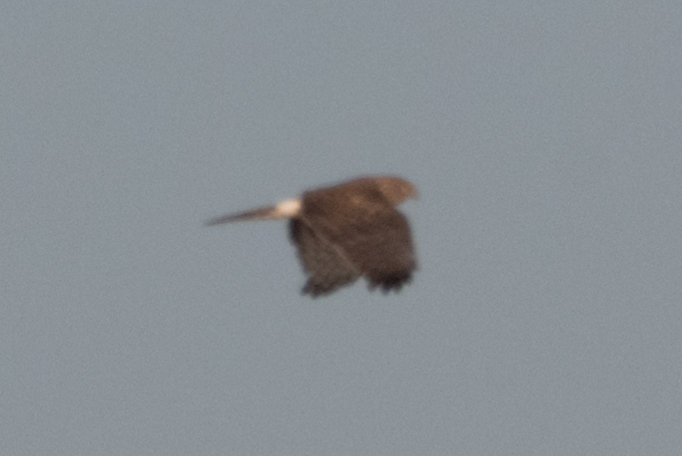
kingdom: Animalia
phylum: Chordata
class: Aves
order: Accipitriformes
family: Accipitridae
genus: Circus
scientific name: Circus cyaneus
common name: Hen harrier
